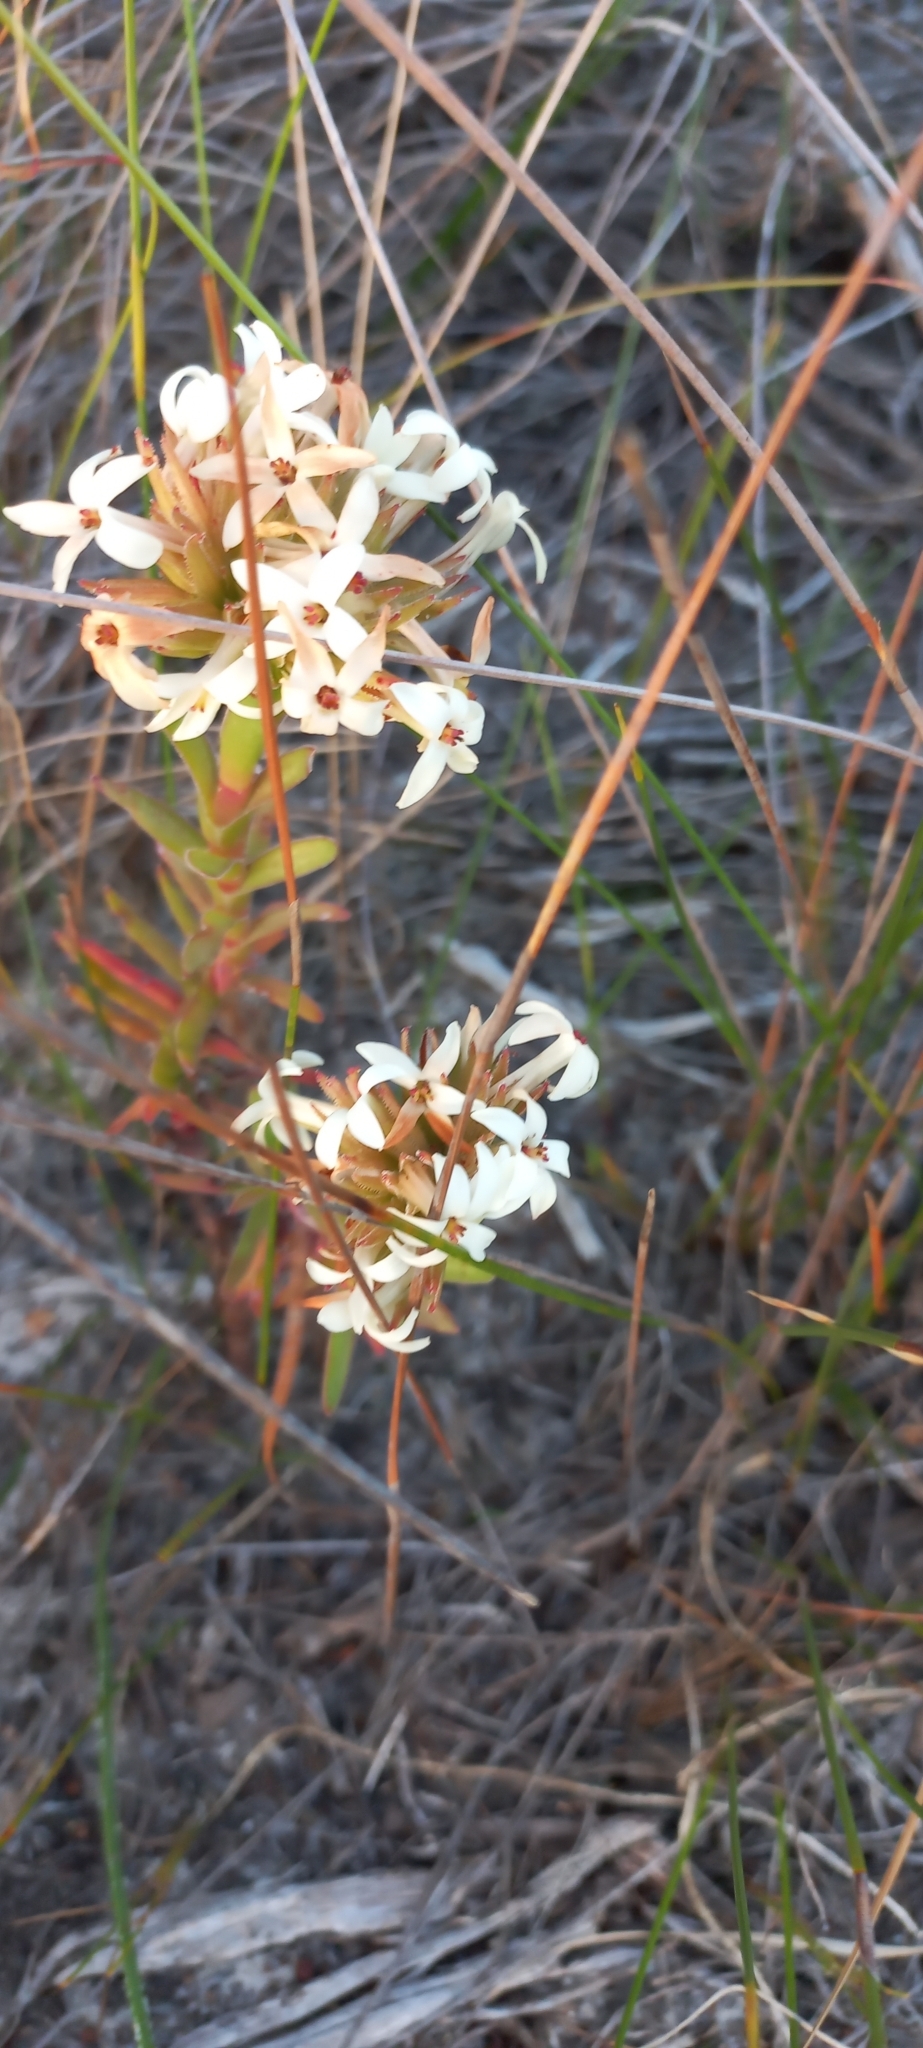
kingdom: Plantae
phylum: Tracheophyta
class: Magnoliopsida
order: Saxifragales
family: Crassulaceae
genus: Crassula
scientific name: Crassula fascicularis
